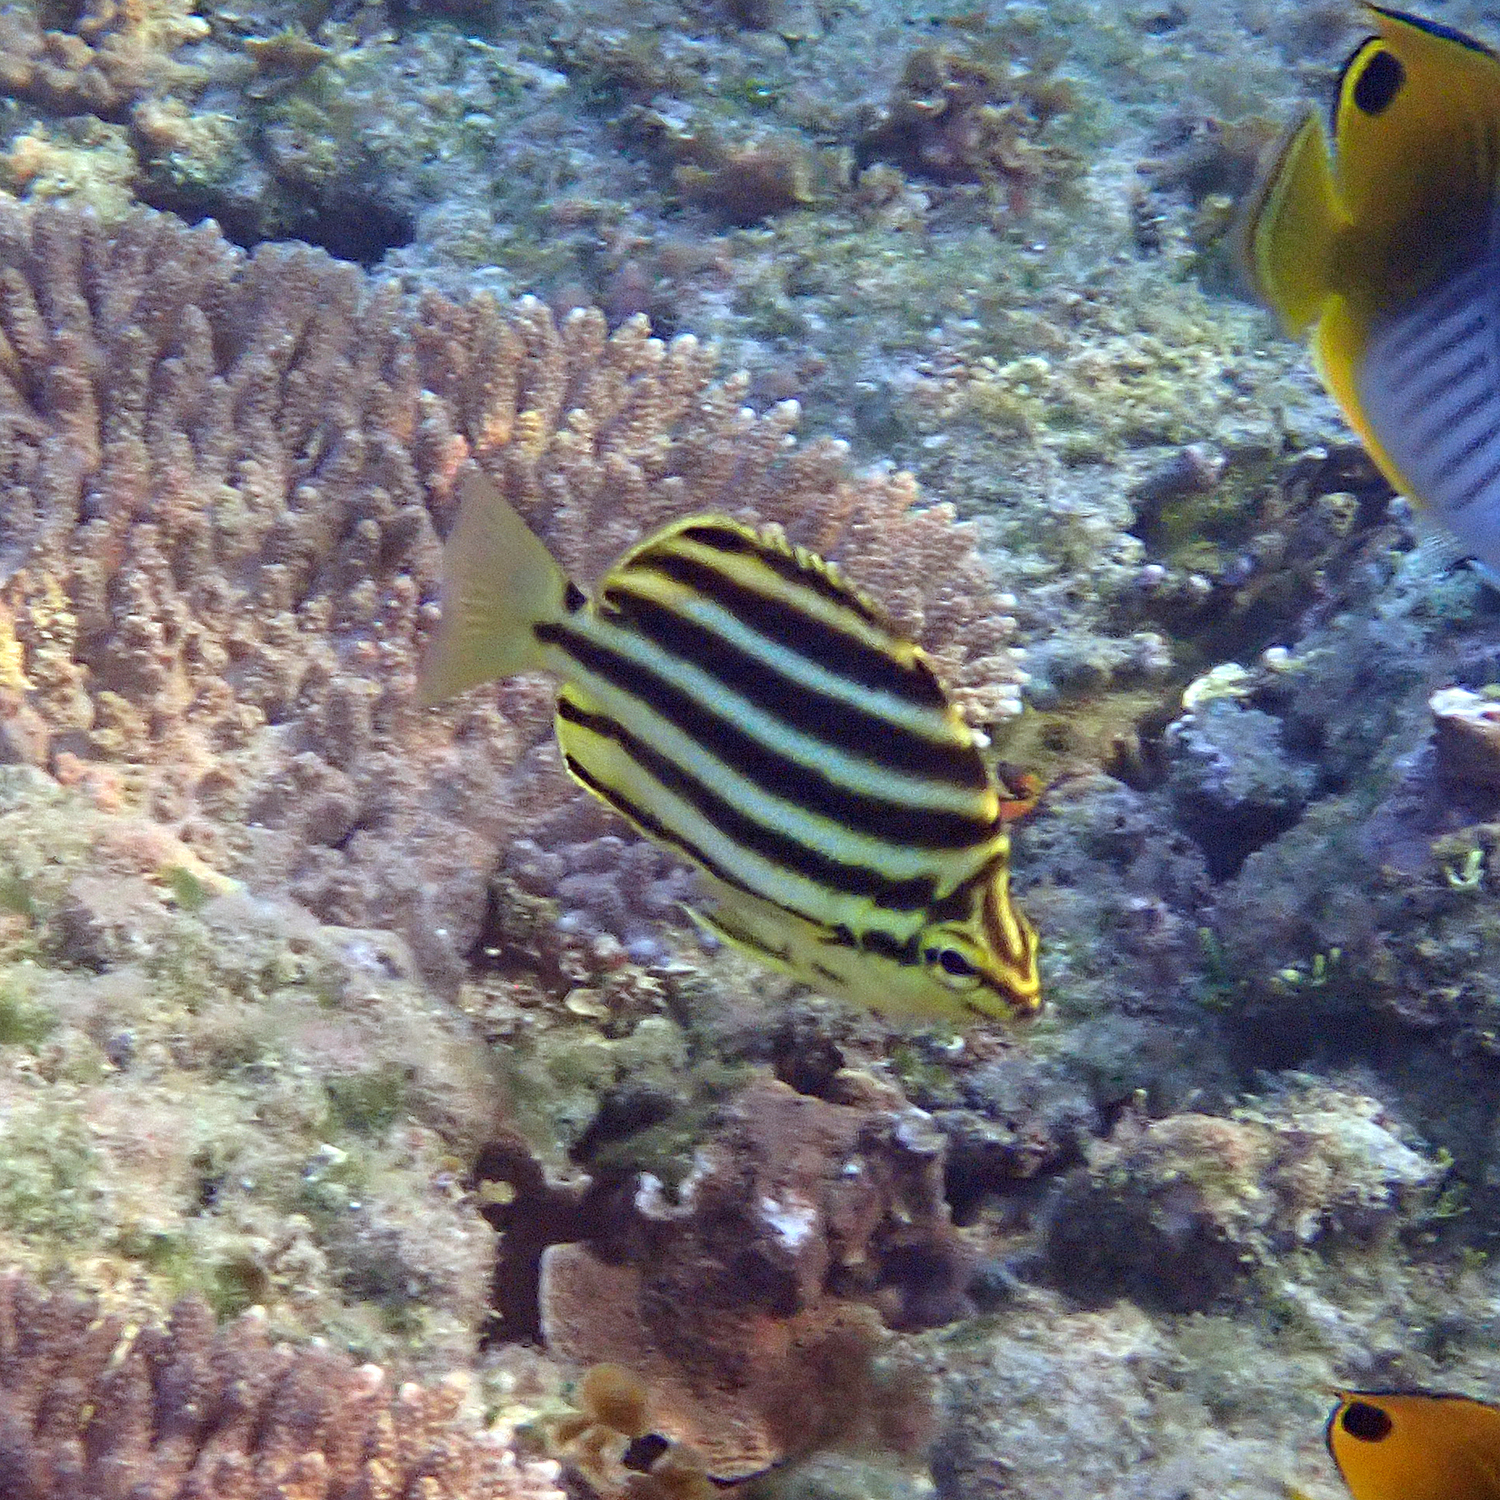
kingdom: Animalia
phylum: Chordata
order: Perciformes
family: Kyphosidae
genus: Microcanthus
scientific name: Microcanthus joyceae
